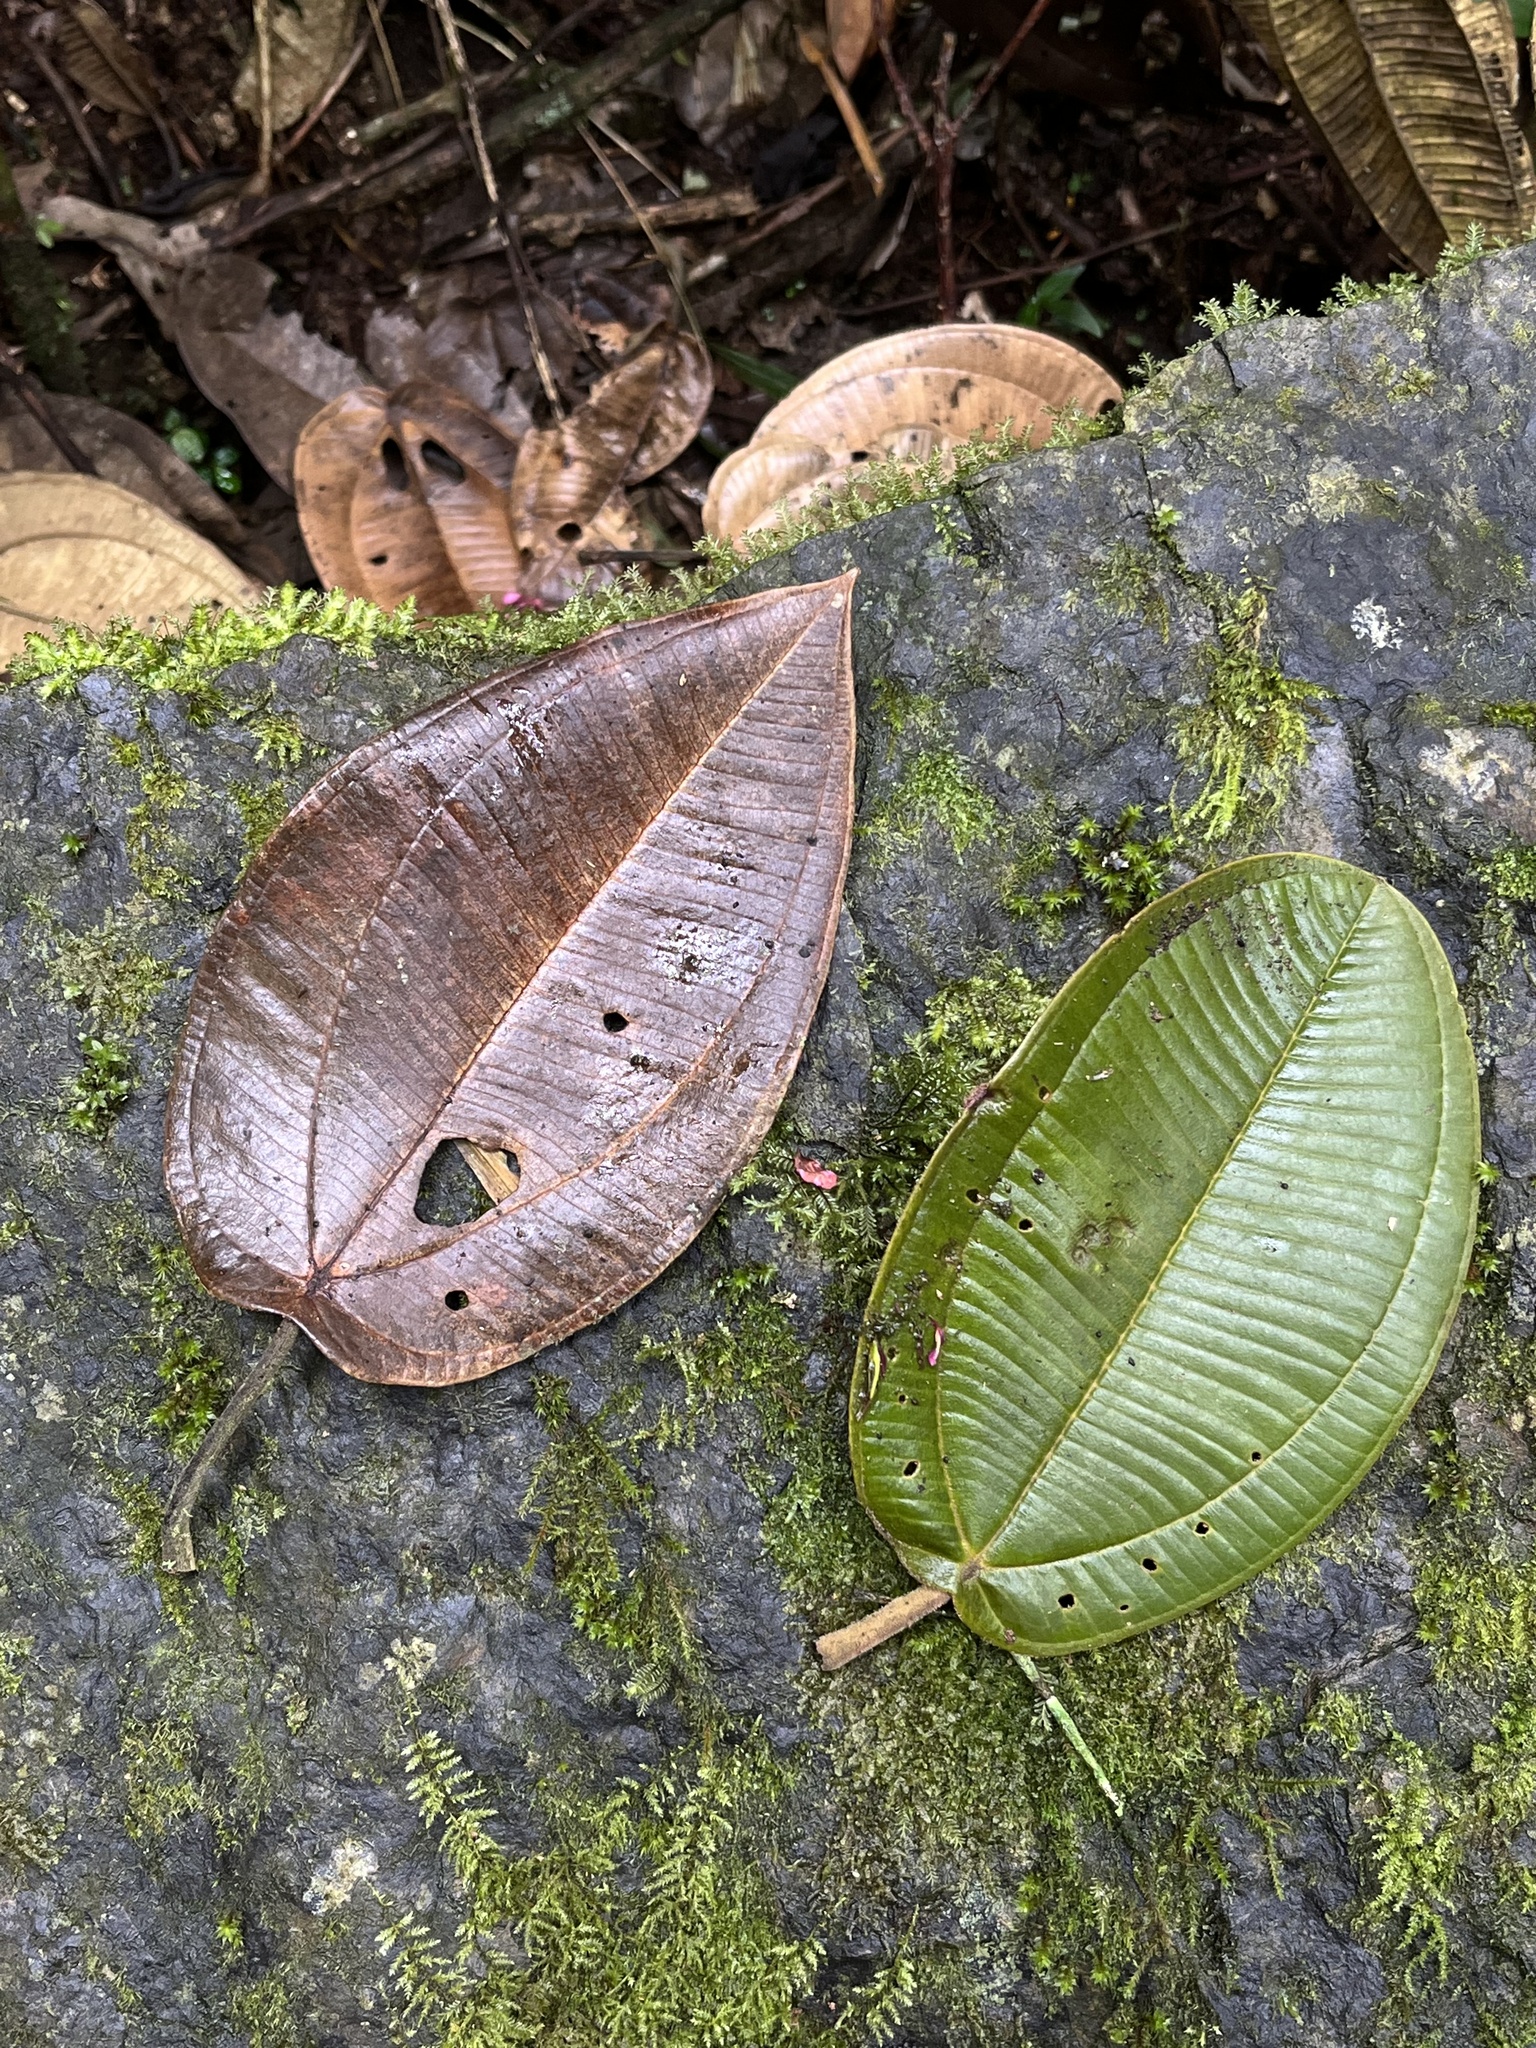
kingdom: Plantae
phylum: Tracheophyta
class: Magnoliopsida
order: Myrtales
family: Melastomataceae
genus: Meriania
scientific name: Meriania macrophylla
